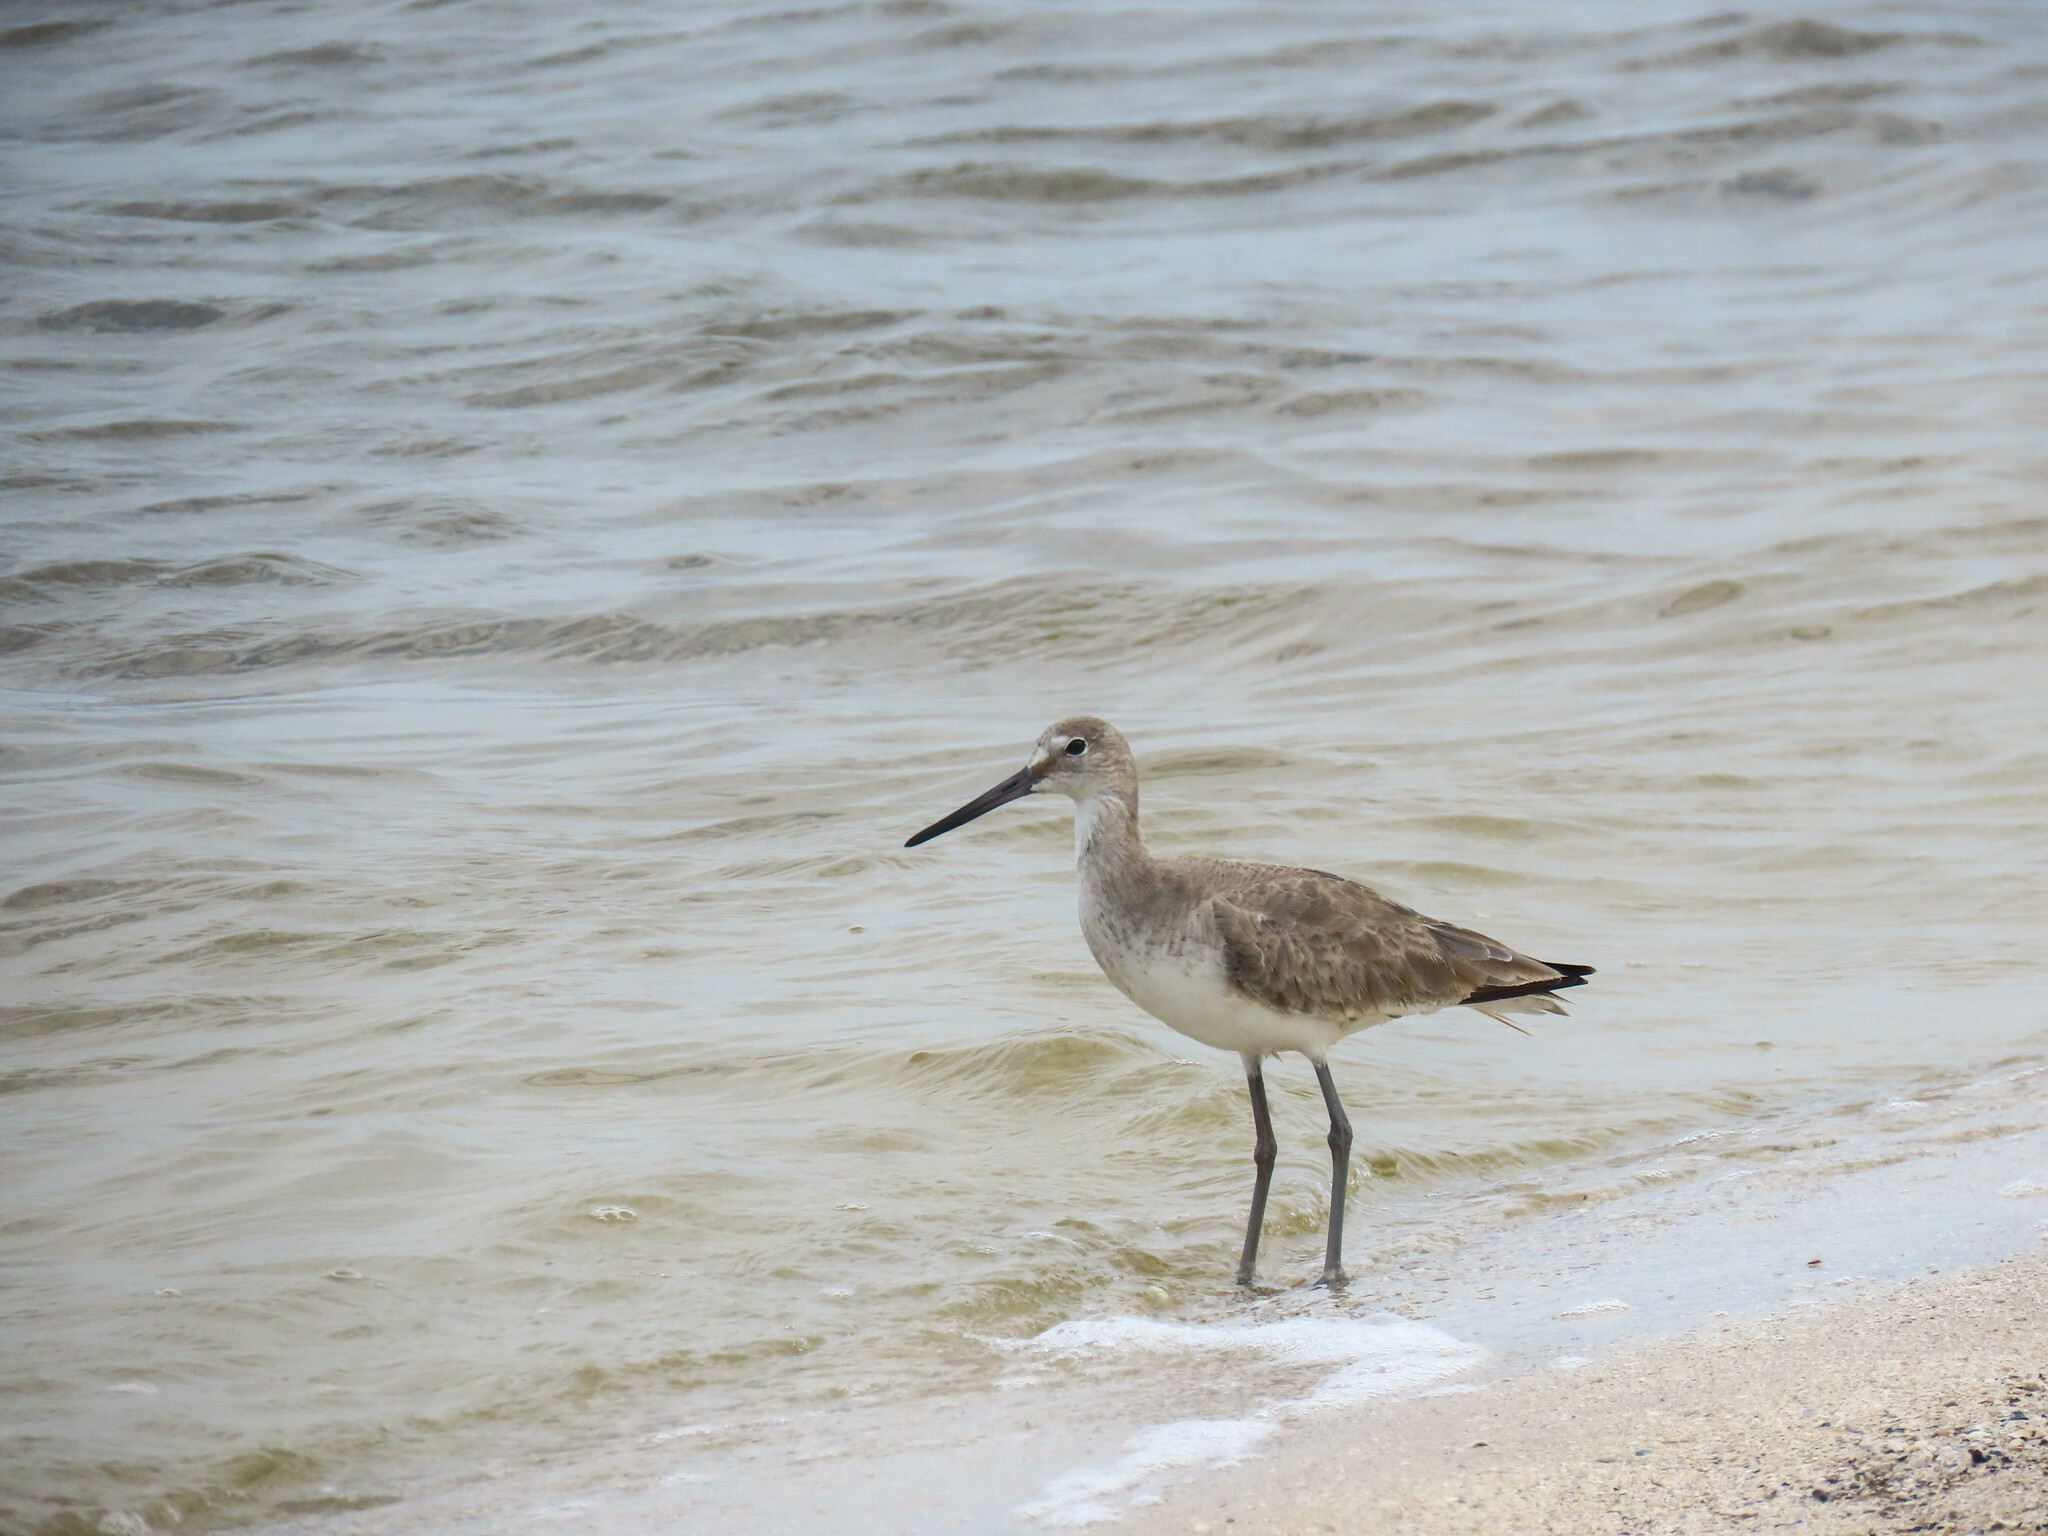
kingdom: Animalia
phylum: Chordata
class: Aves
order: Charadriiformes
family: Scolopacidae
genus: Tringa
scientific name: Tringa semipalmata
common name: Willet
